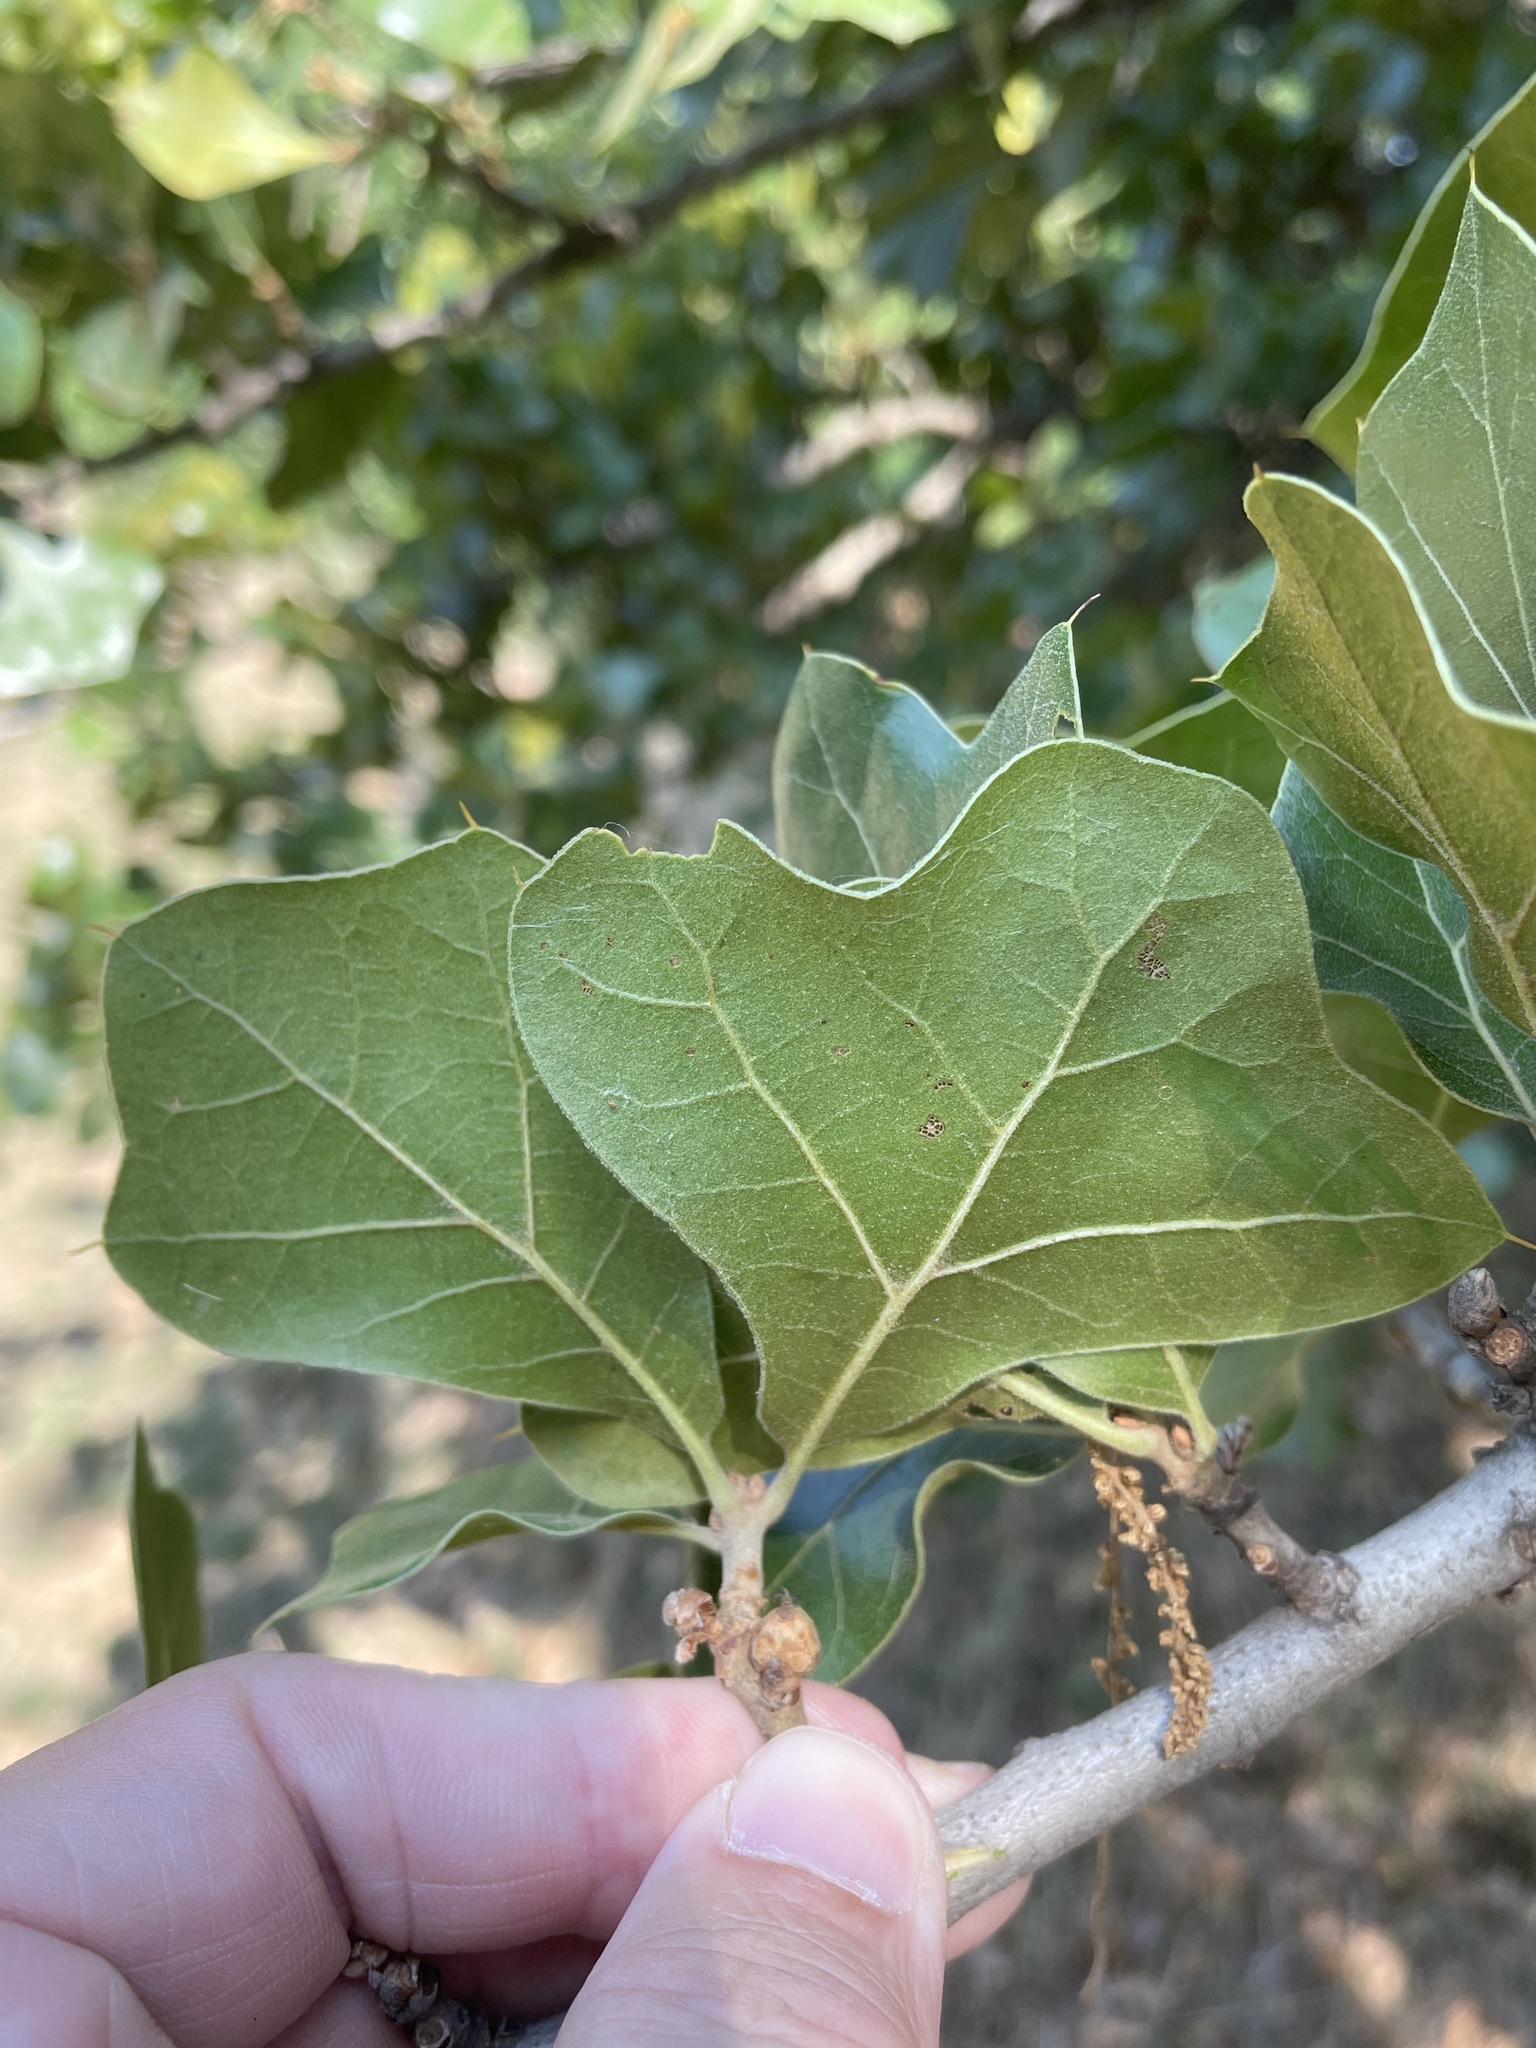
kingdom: Plantae
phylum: Tracheophyta
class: Magnoliopsida
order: Fagales
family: Fagaceae
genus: Quercus
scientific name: Quercus marilandica
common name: Blackjack oak
